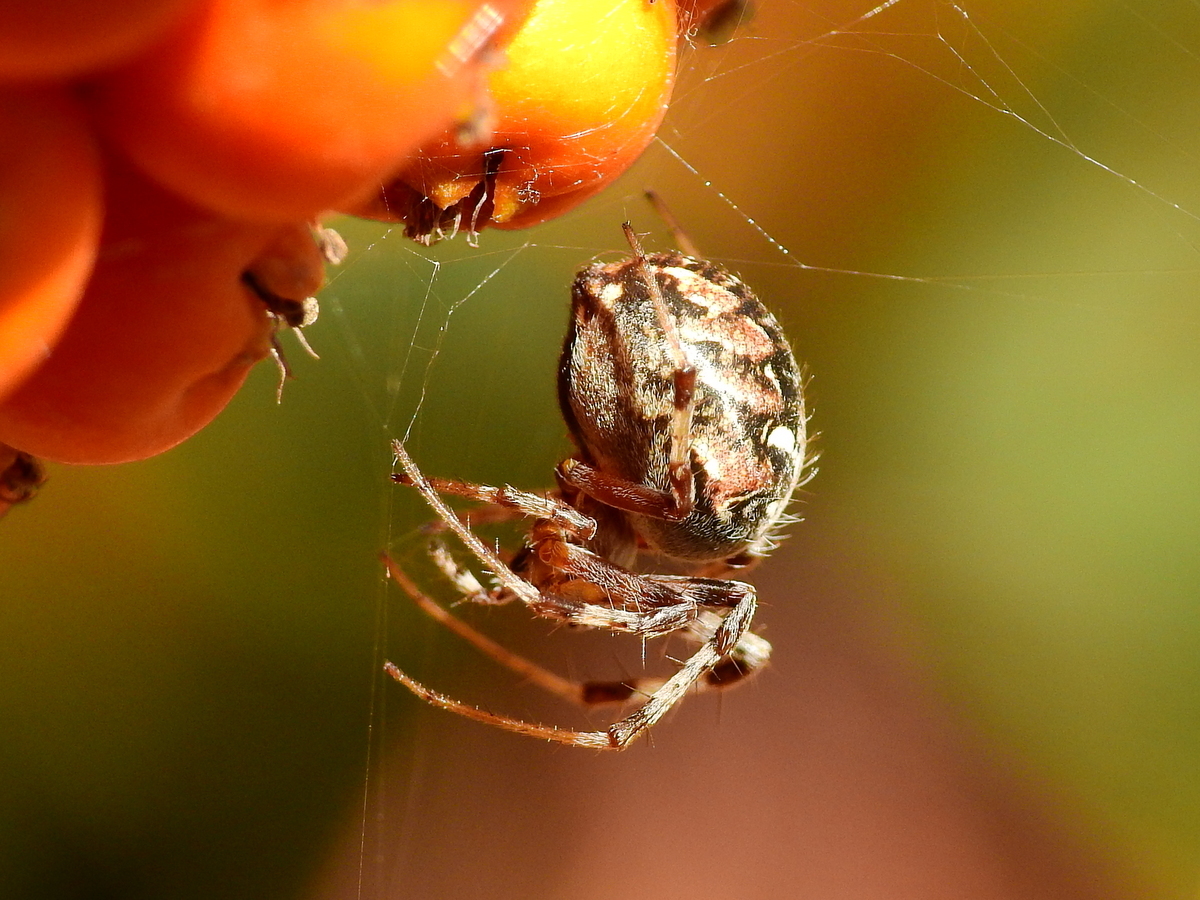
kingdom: Animalia
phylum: Arthropoda
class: Arachnida
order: Araneae
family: Araneidae
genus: Metepeira
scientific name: Metepeira
